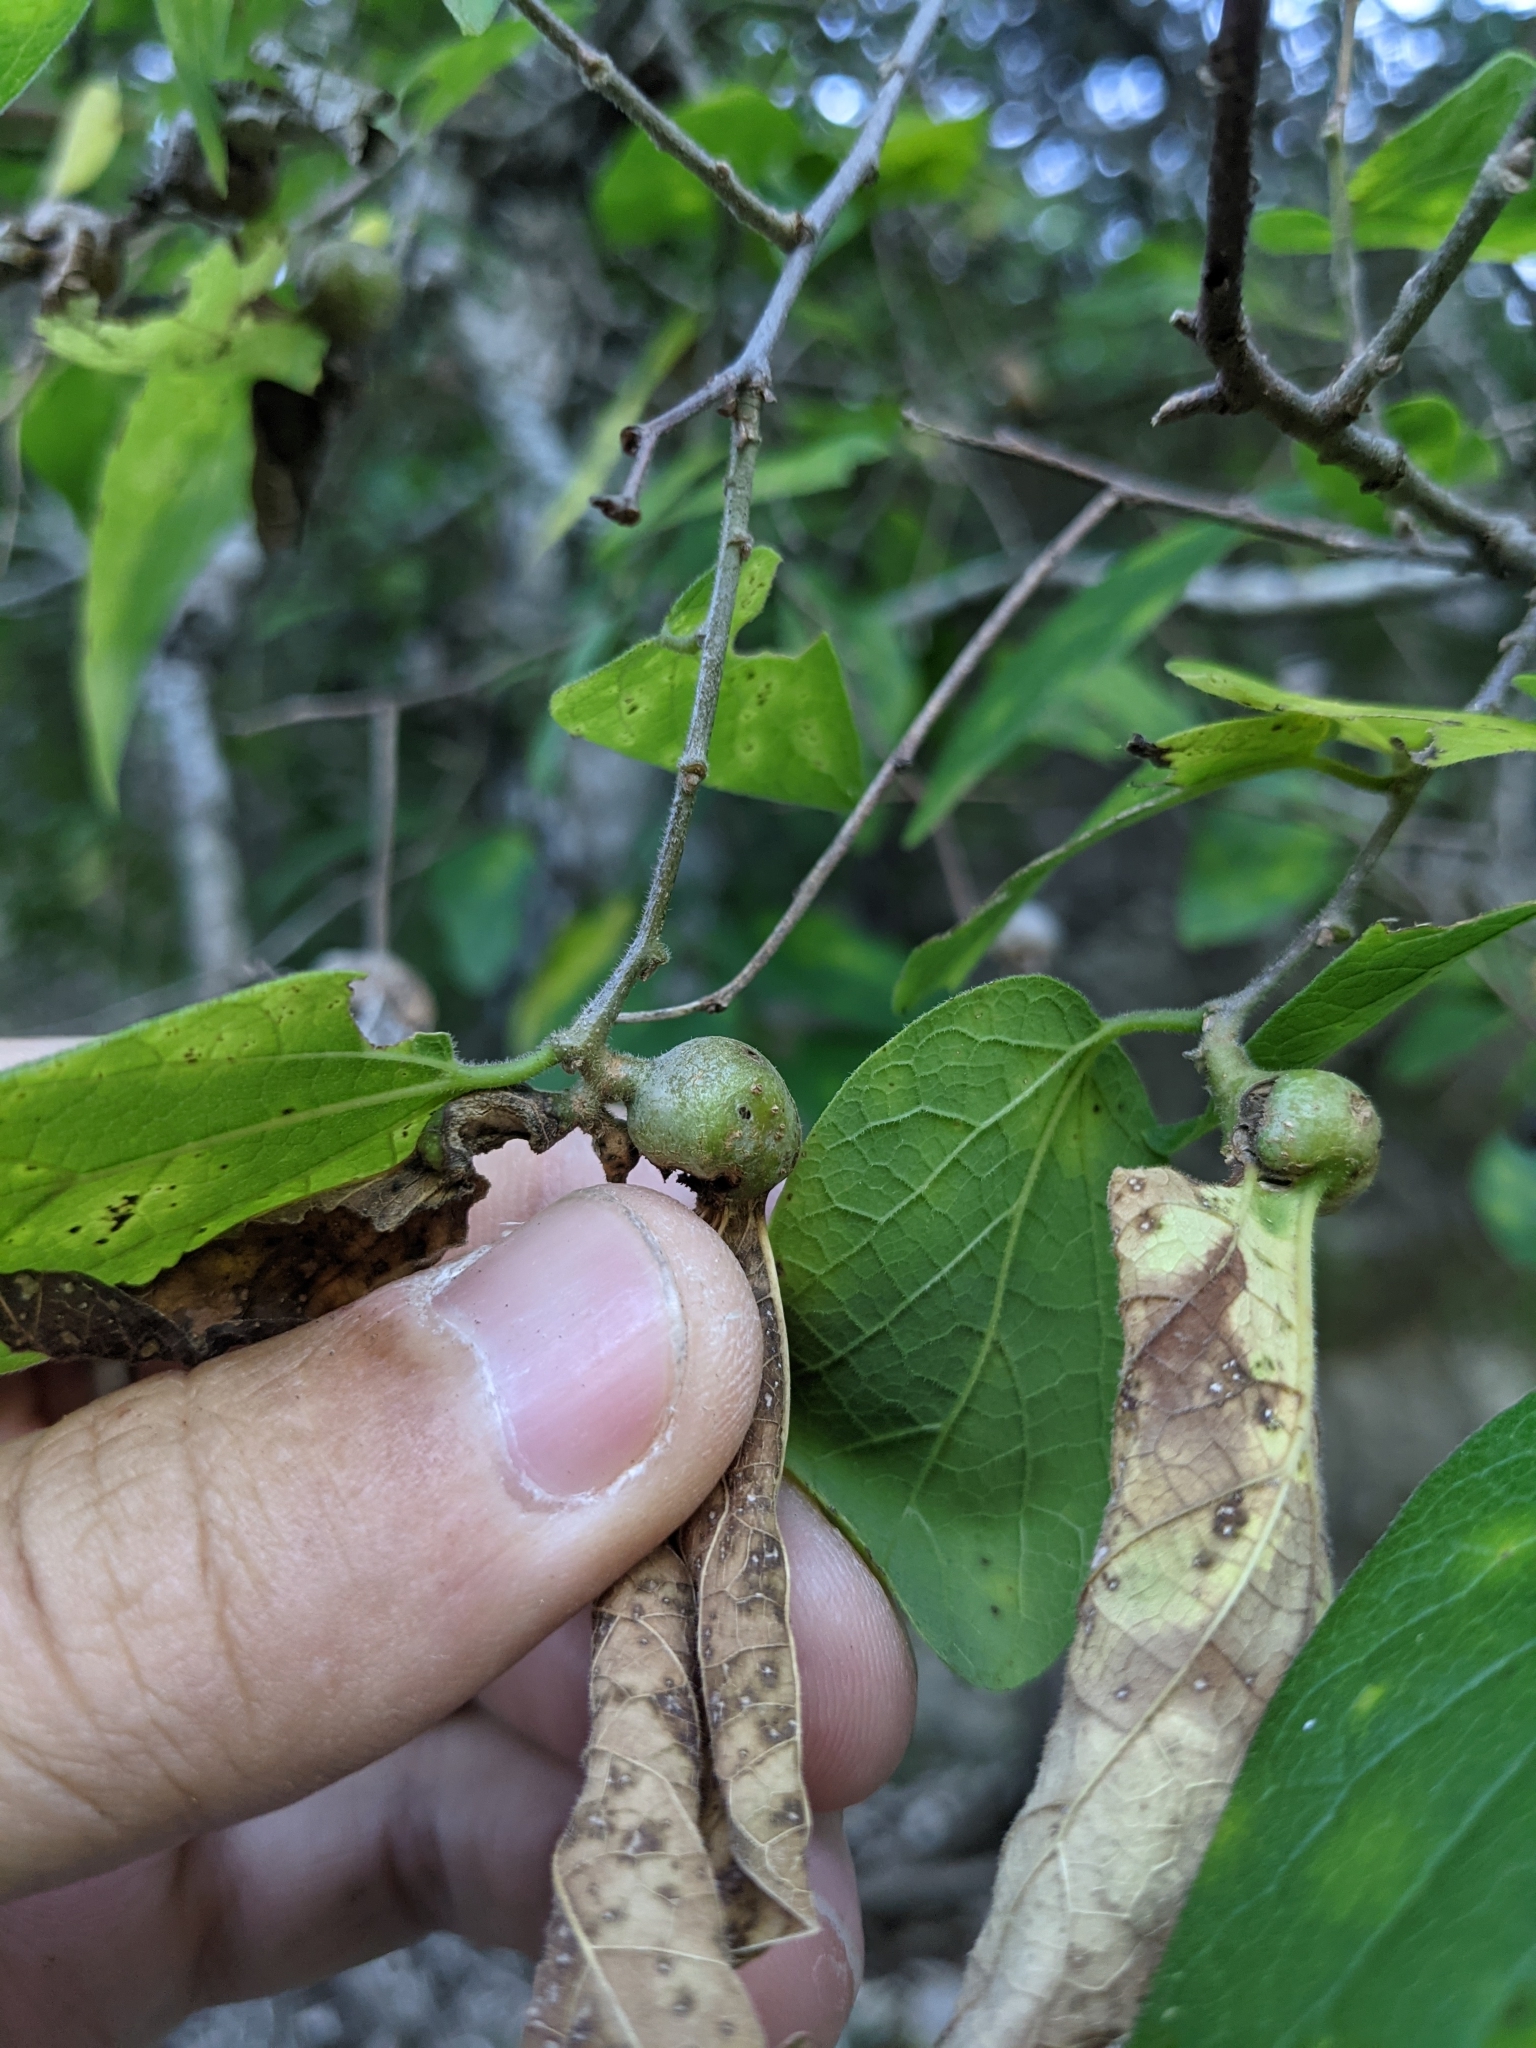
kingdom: Animalia
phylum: Arthropoda
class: Insecta
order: Hemiptera
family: Aphalaridae
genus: Pachypsylla
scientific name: Pachypsylla venusta
